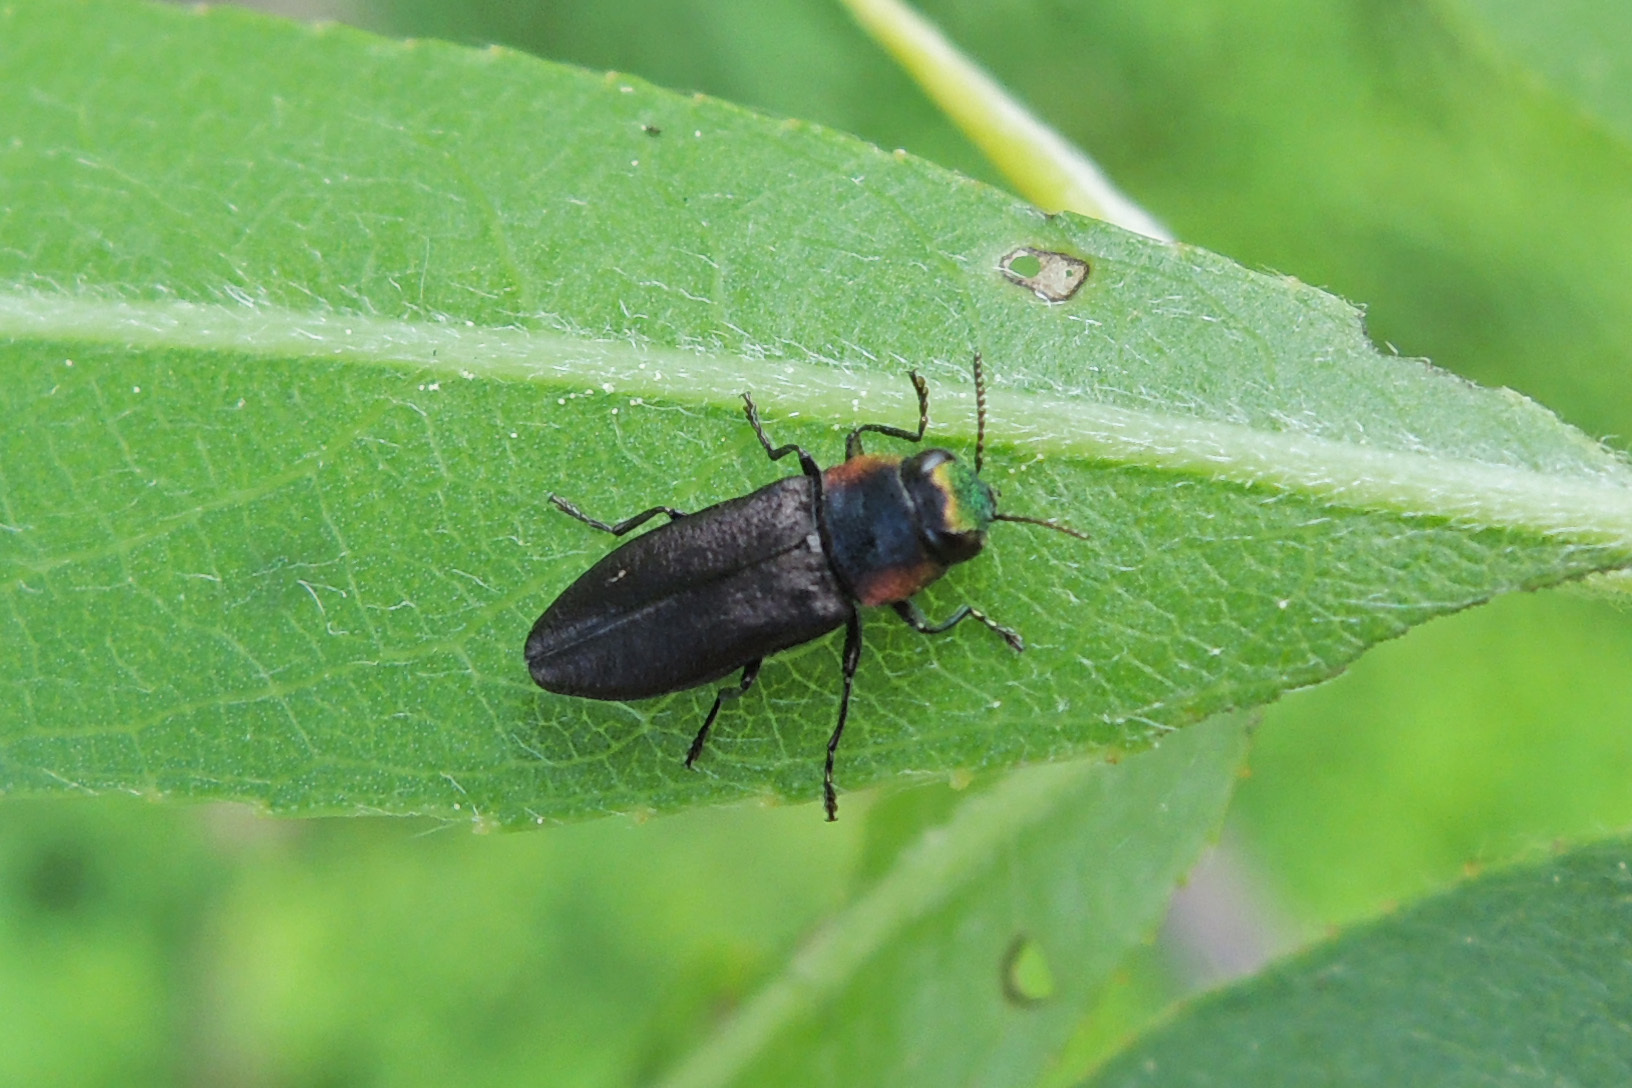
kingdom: Animalia
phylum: Arthropoda
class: Insecta
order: Coleoptera
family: Buprestidae
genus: Anthaxia
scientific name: Anthaxia viridicornis
